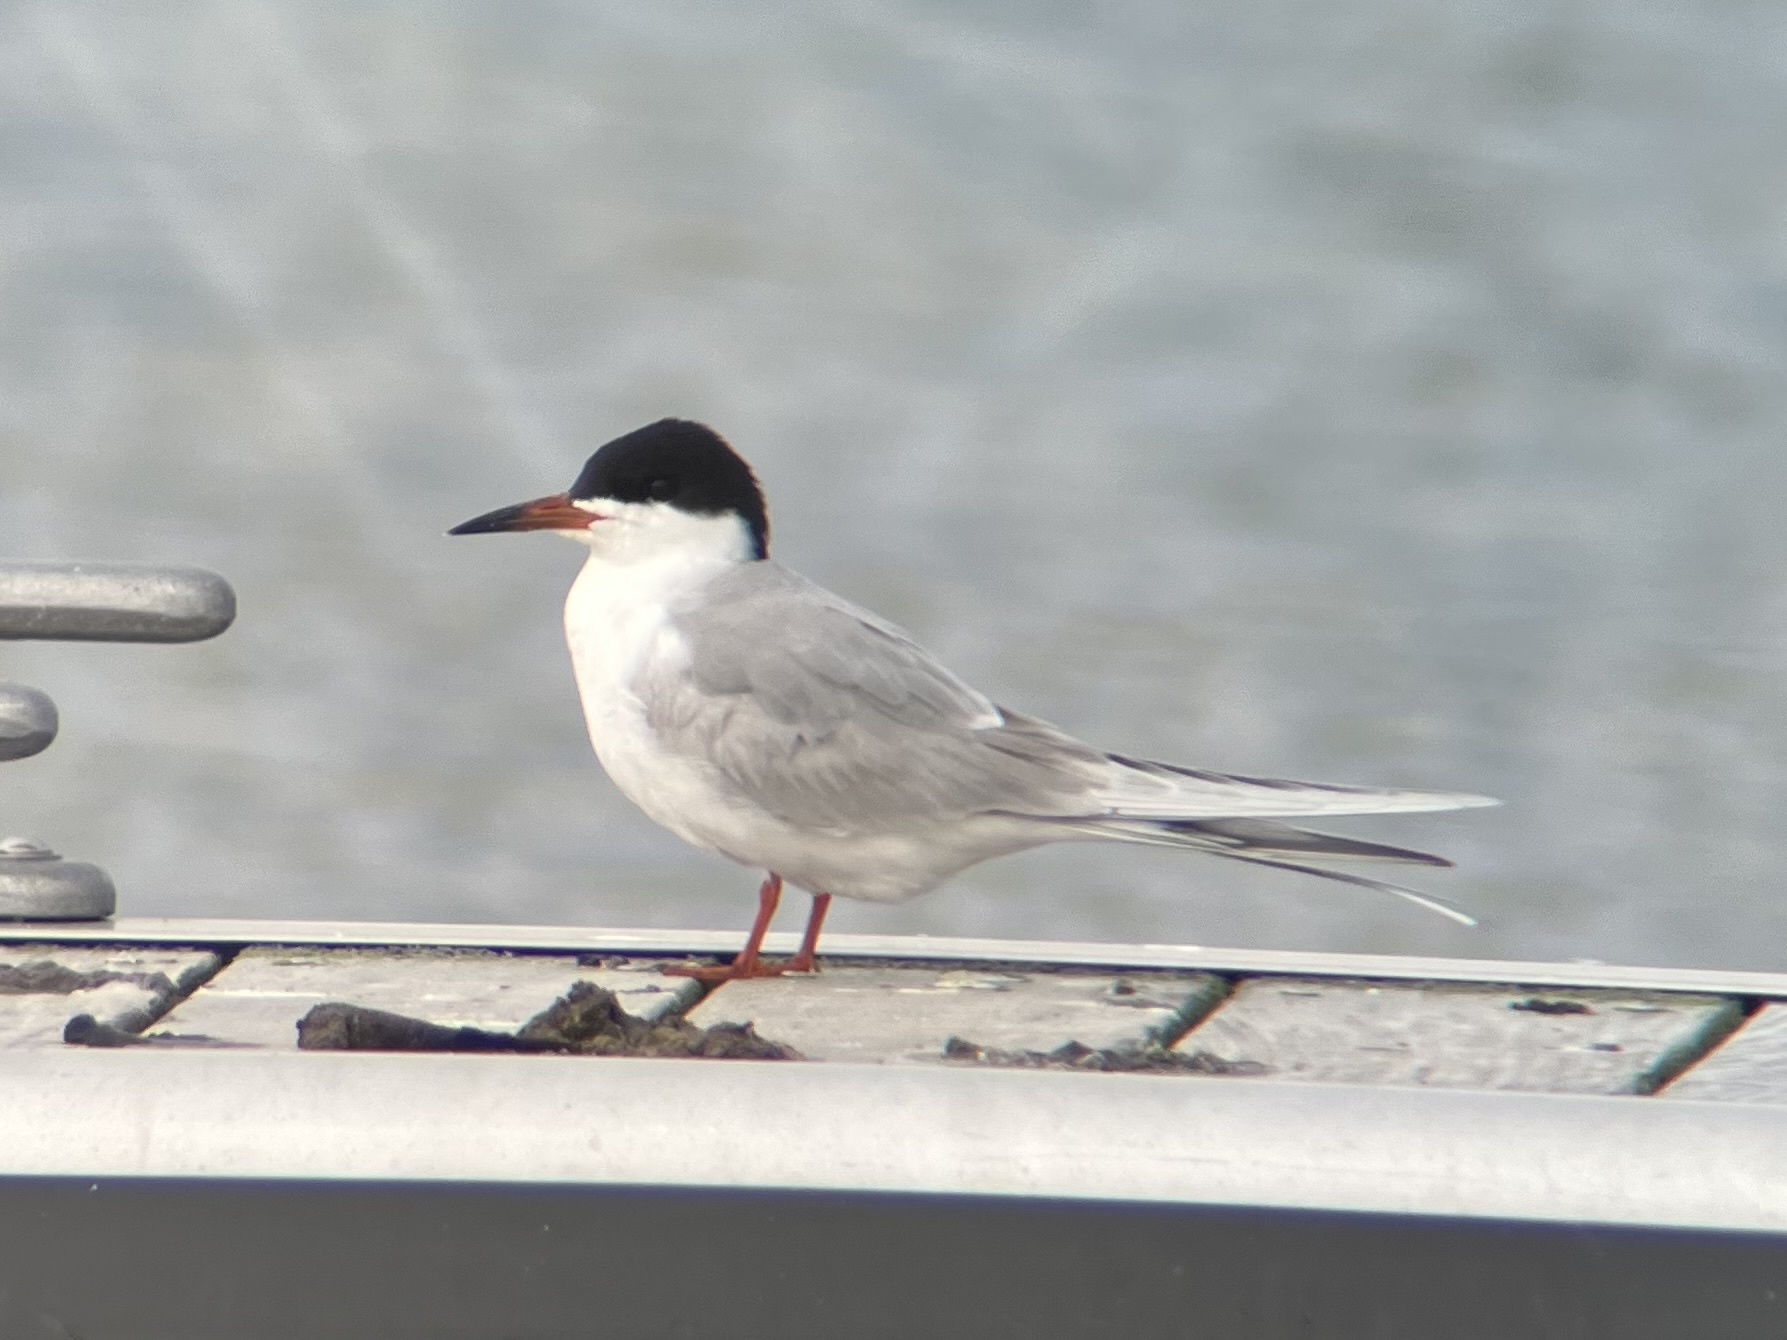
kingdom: Animalia
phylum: Chordata
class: Aves
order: Charadriiformes
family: Laridae
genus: Sterna
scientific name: Sterna forsteri
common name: Forster's tern
